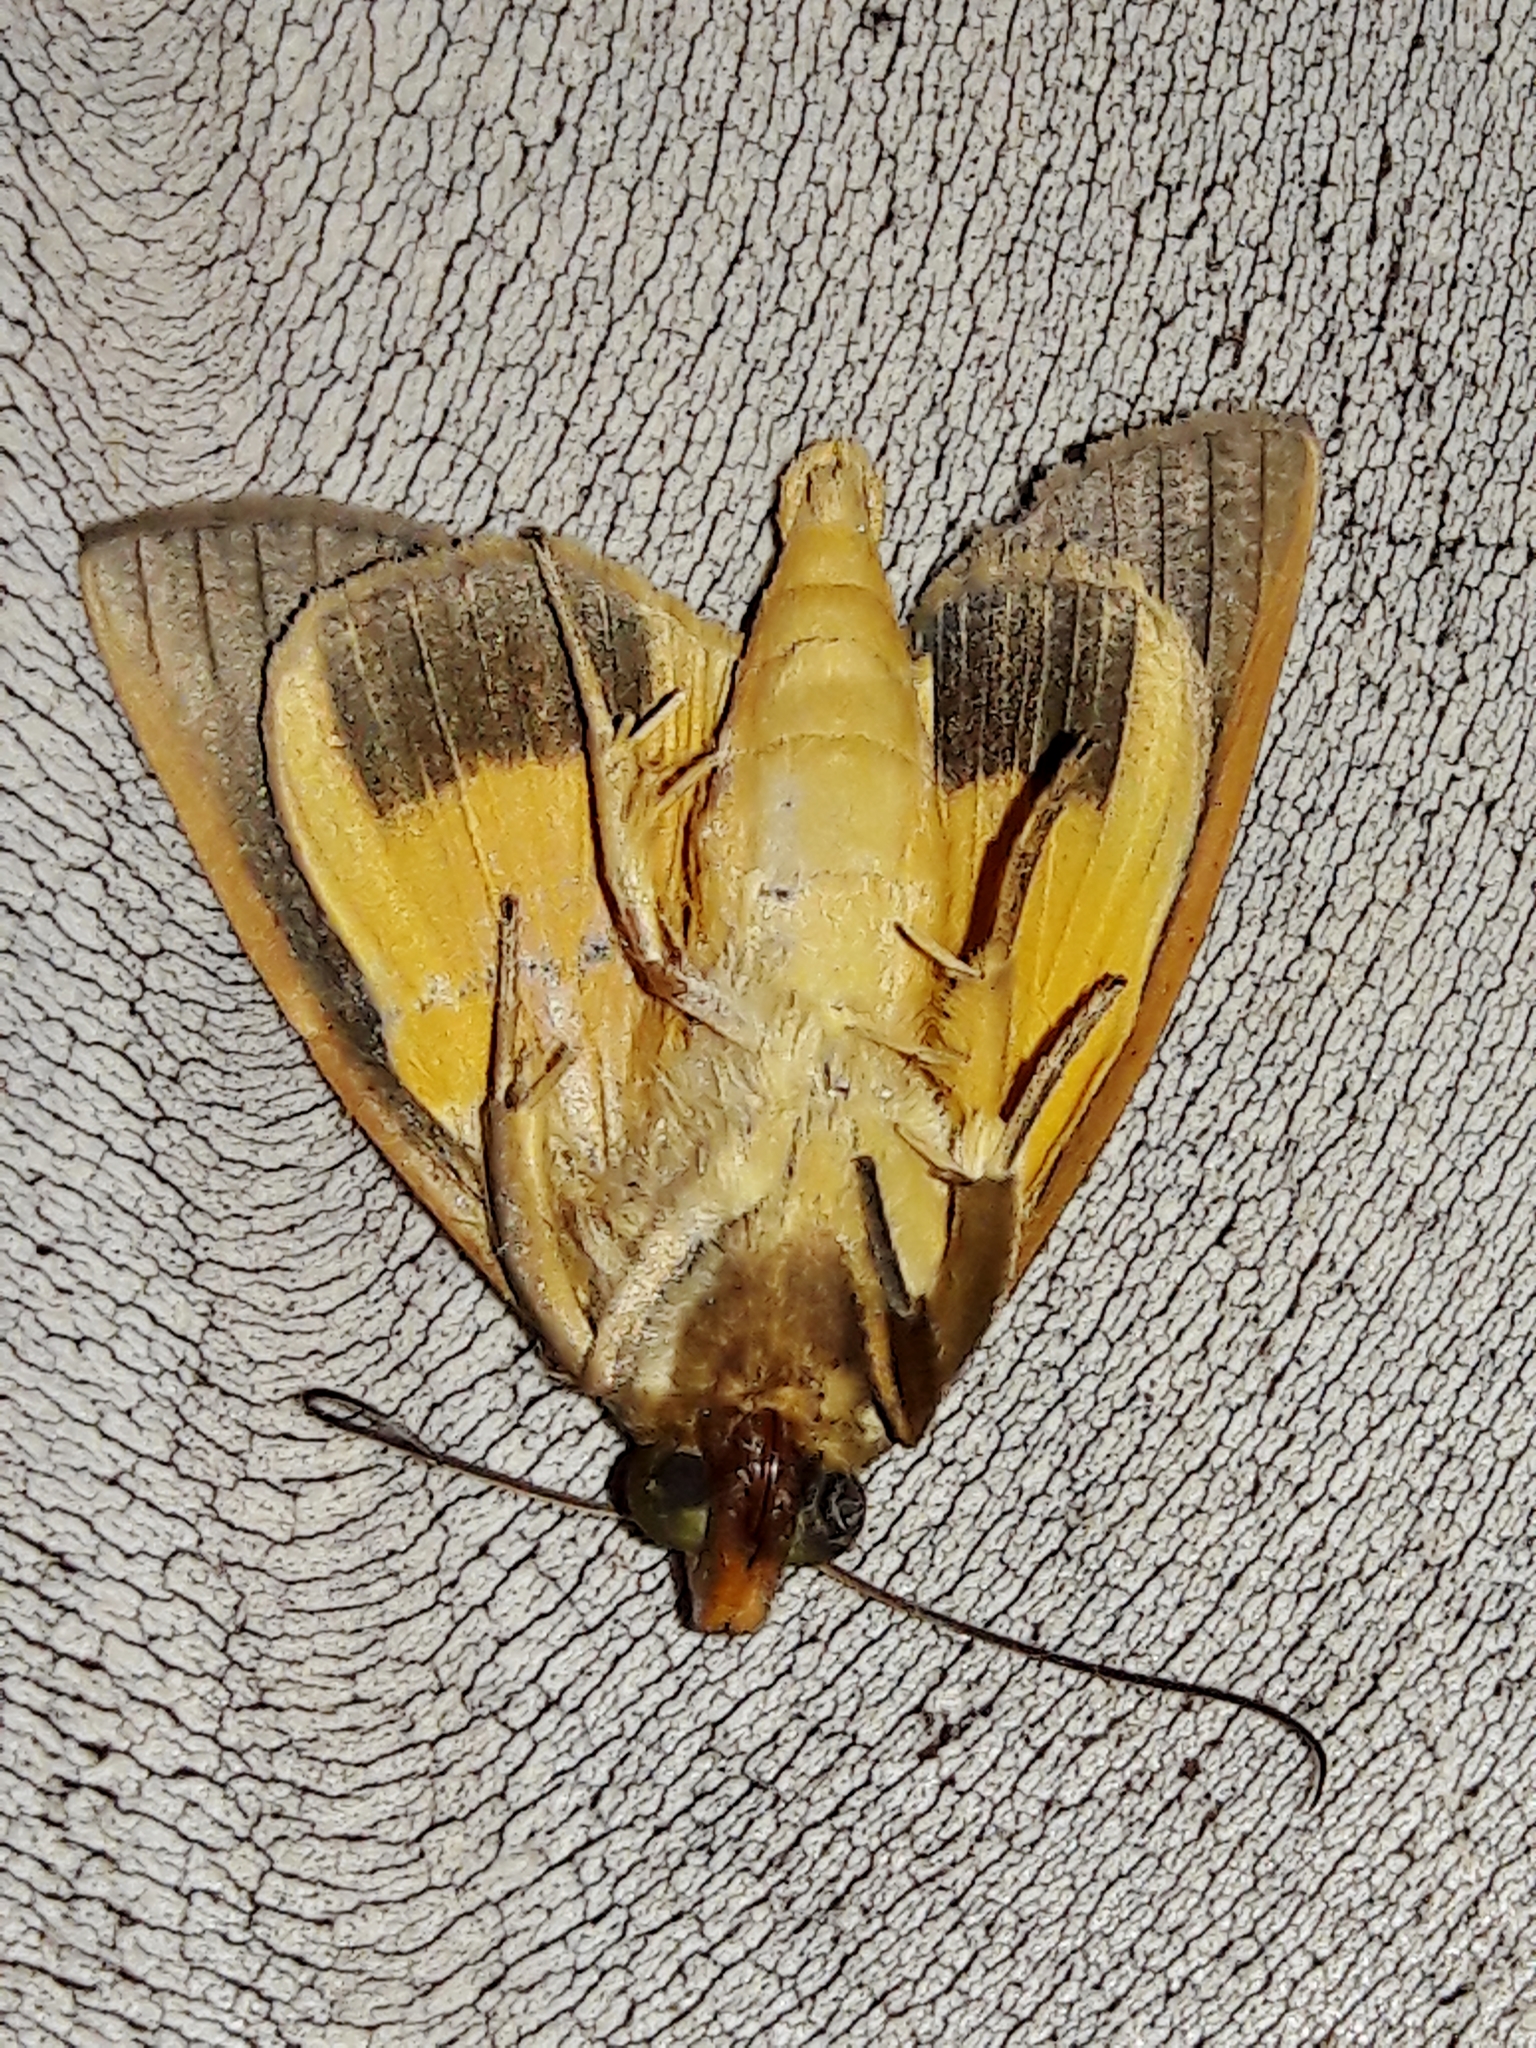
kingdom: Animalia
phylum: Arthropoda
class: Insecta
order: Lepidoptera
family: Erebidae
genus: Gonodonta
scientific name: Gonodonta sicheas
